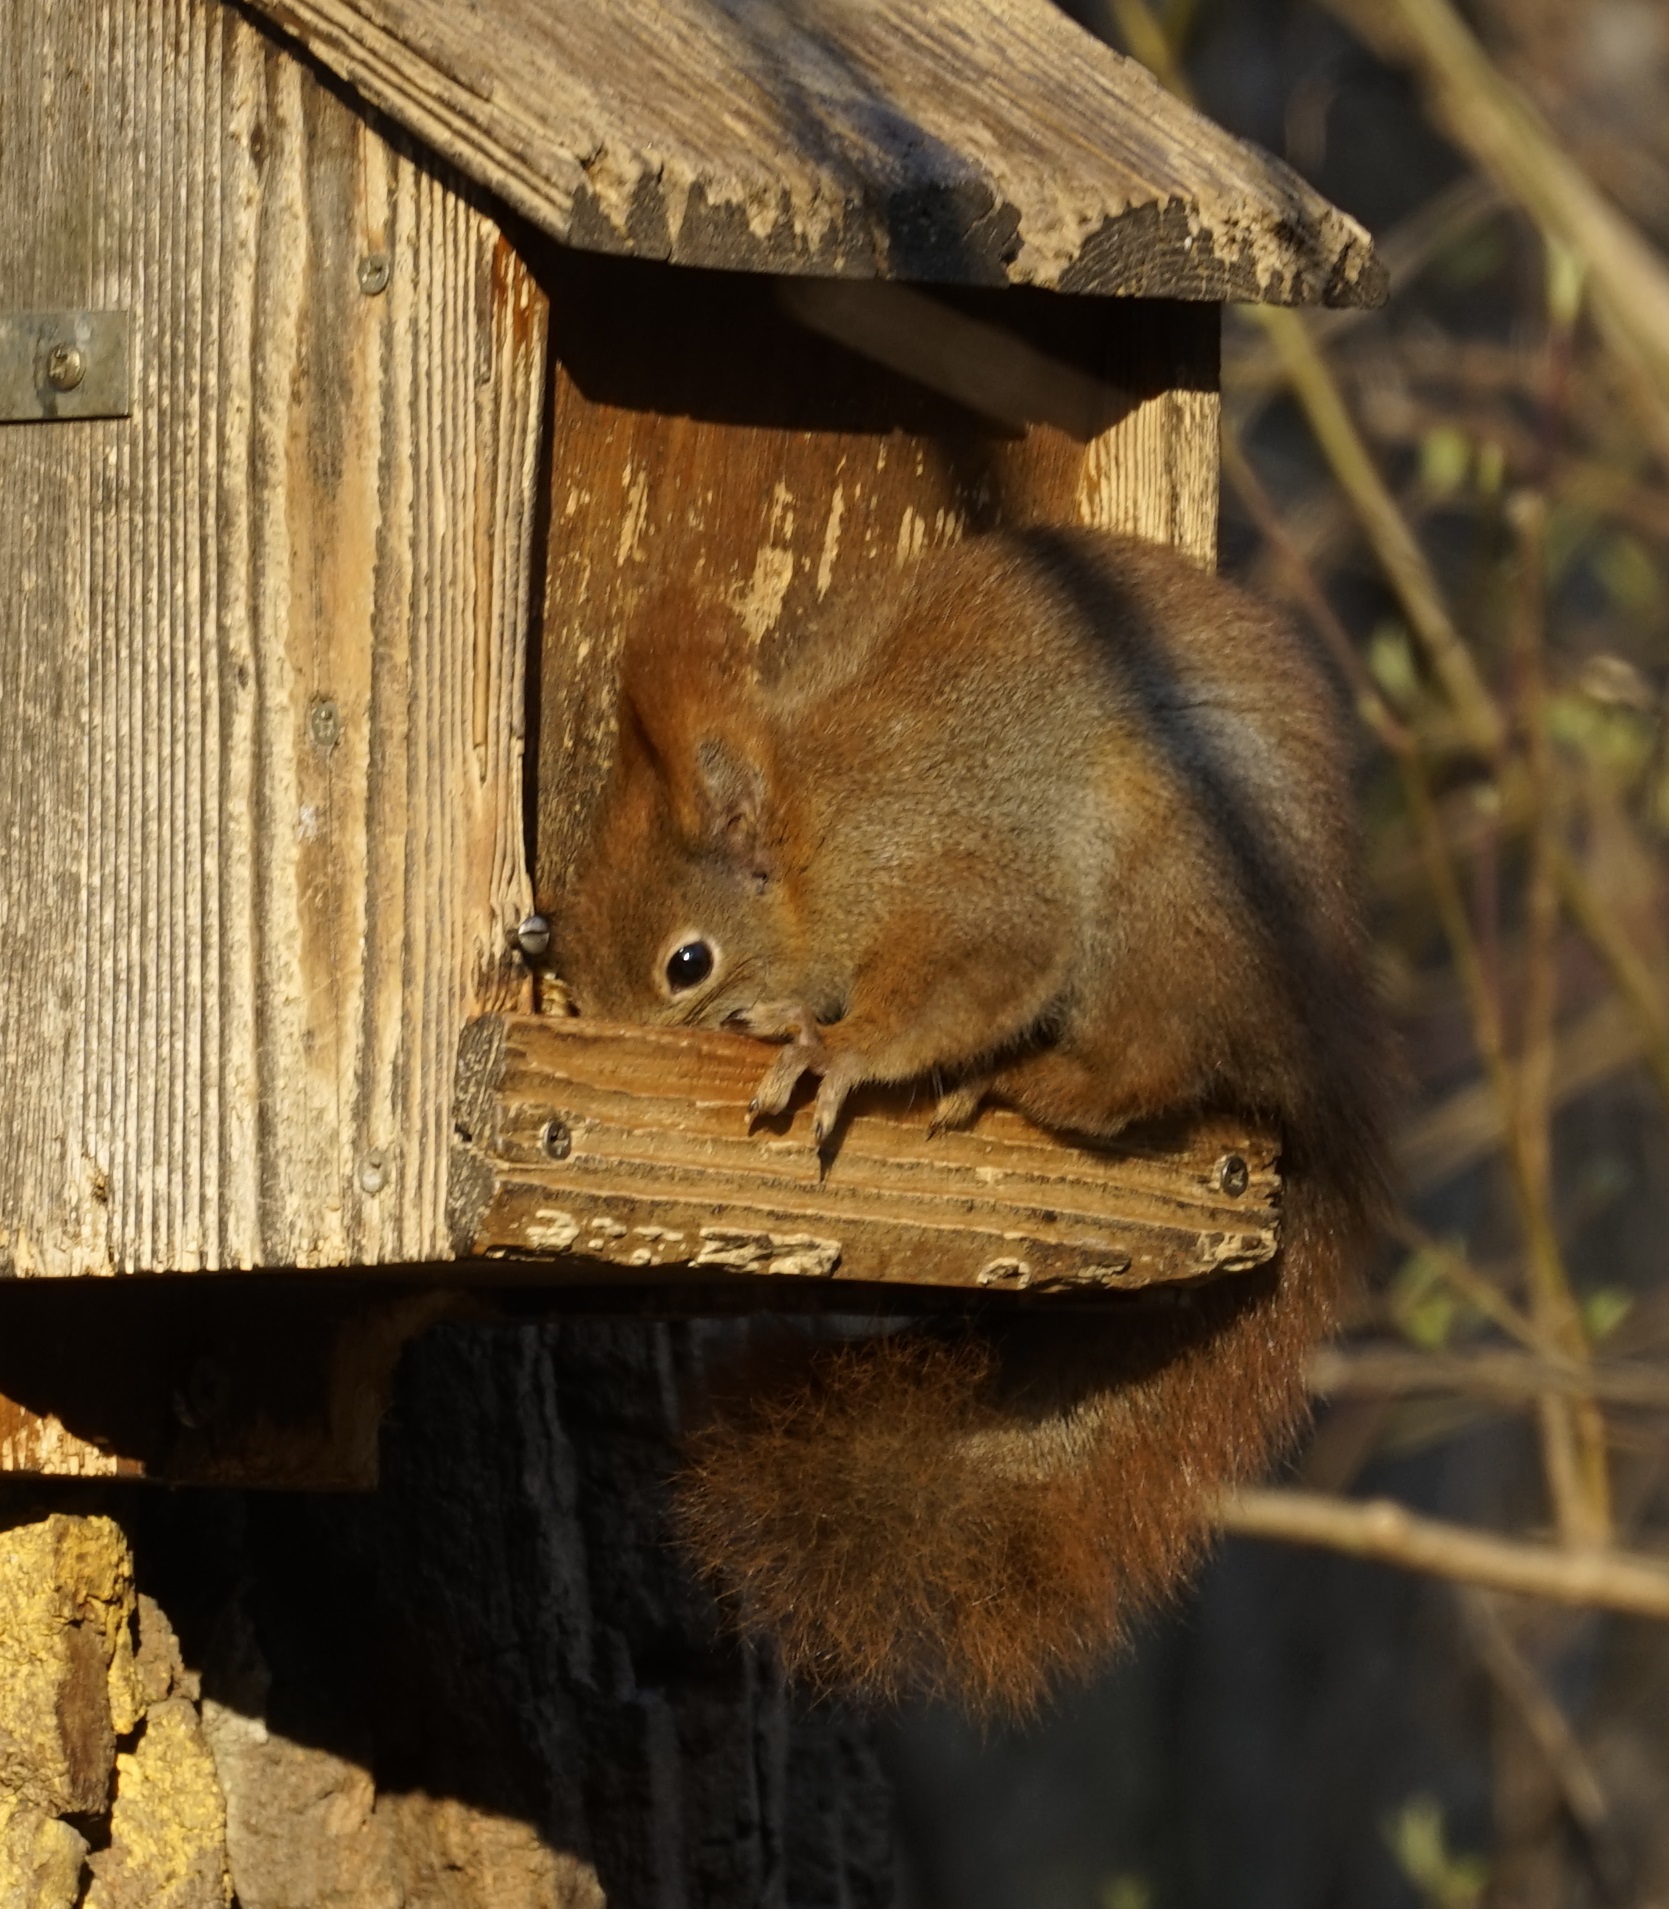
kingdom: Animalia
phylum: Chordata
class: Mammalia
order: Rodentia
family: Sciuridae
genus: Sciurus
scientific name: Sciurus vulgaris
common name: Eurasian red squirrel
